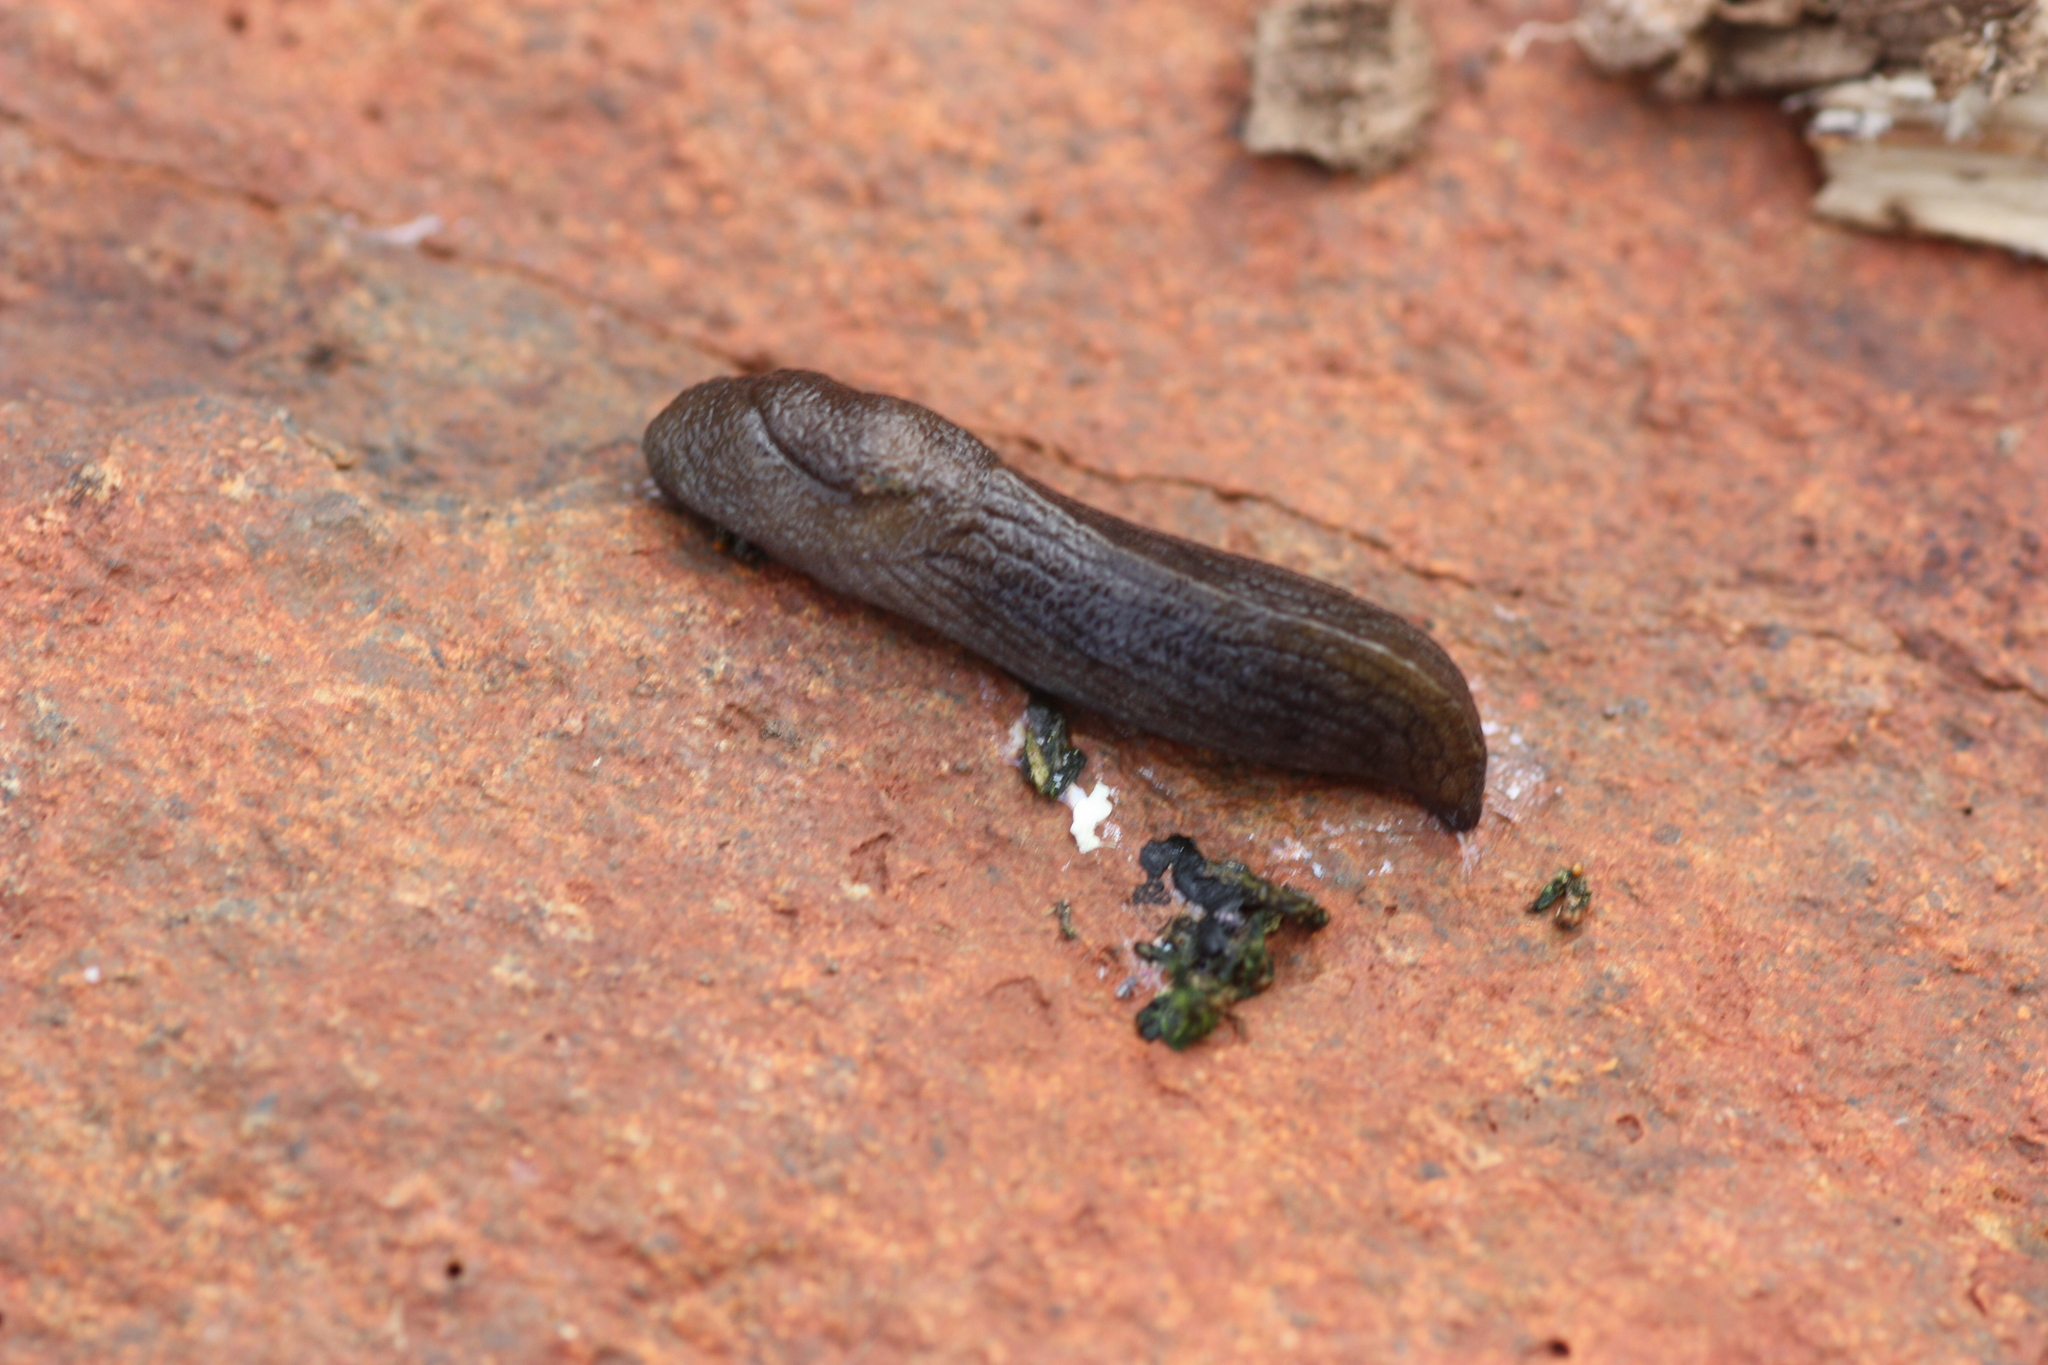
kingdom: Animalia
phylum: Mollusca
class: Gastropoda
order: Stylommatophora
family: Milacidae
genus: Milax
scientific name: Milax gagates
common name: Greenhouse slug
